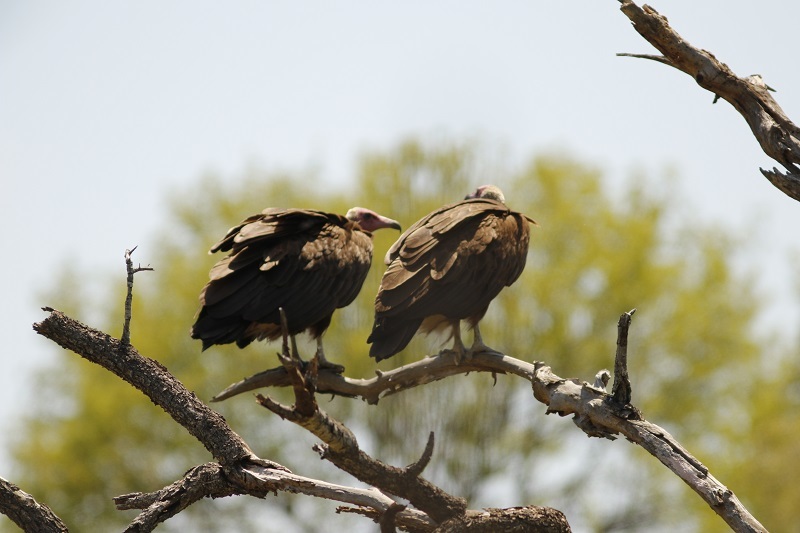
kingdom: Animalia
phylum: Chordata
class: Aves
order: Accipitriformes
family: Accipitridae
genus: Necrosyrtes
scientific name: Necrosyrtes monachus
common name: Hooded vulture
